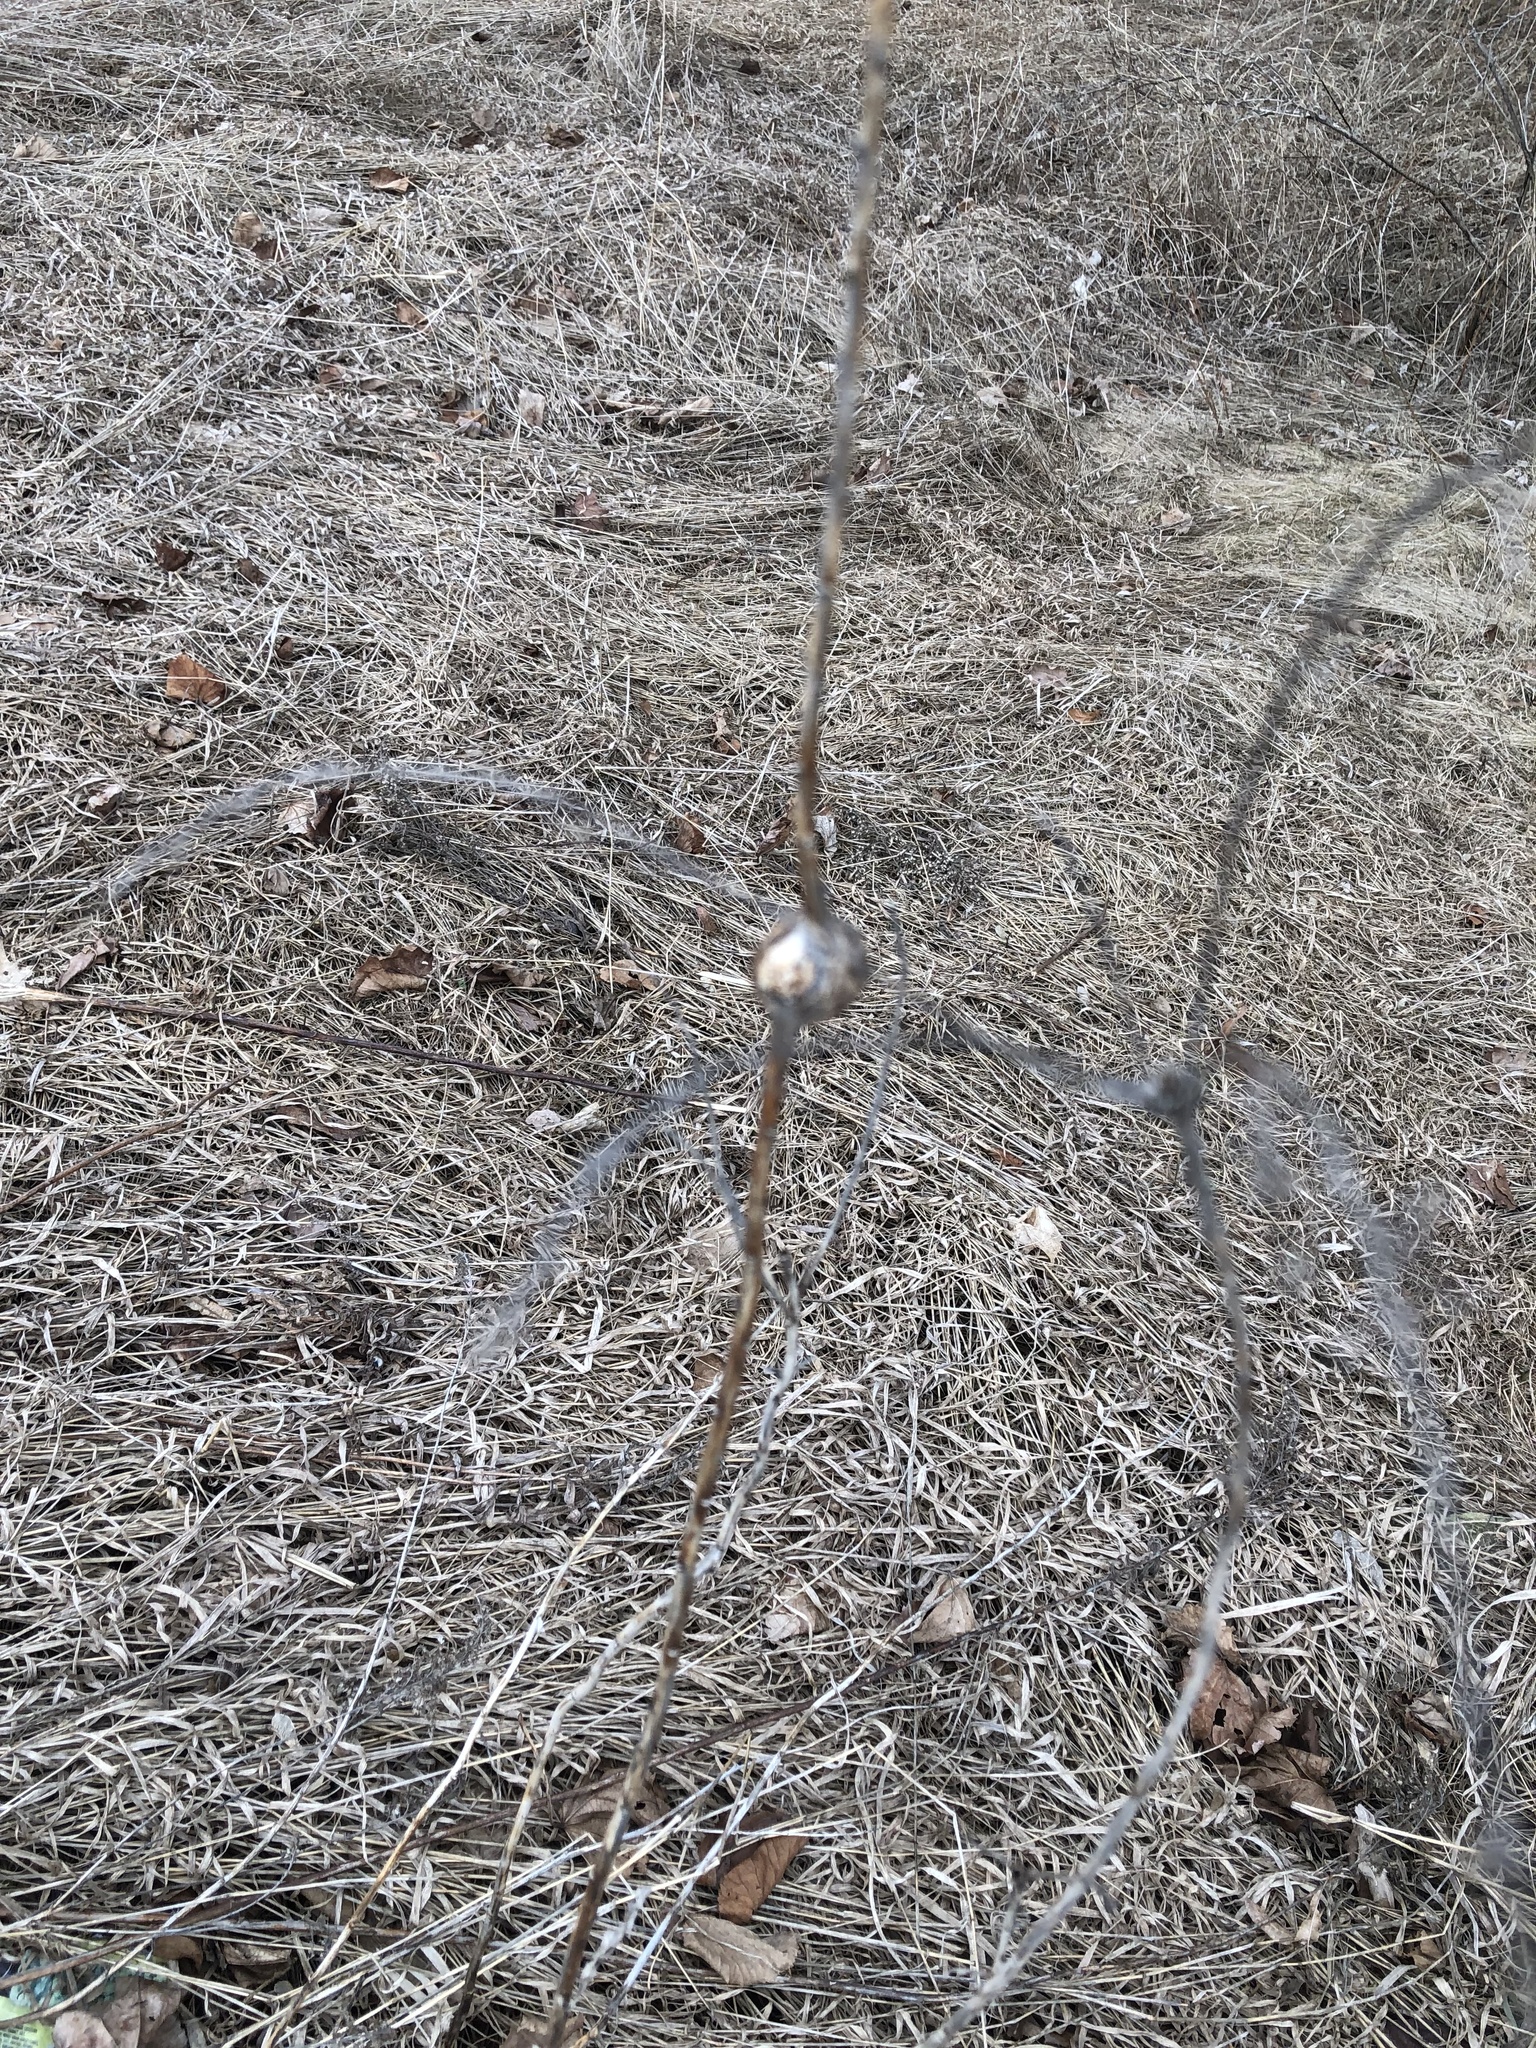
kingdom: Animalia
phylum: Arthropoda
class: Insecta
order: Diptera
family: Tephritidae
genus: Eurosta
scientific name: Eurosta solidaginis
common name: Goldenrod gall fly
